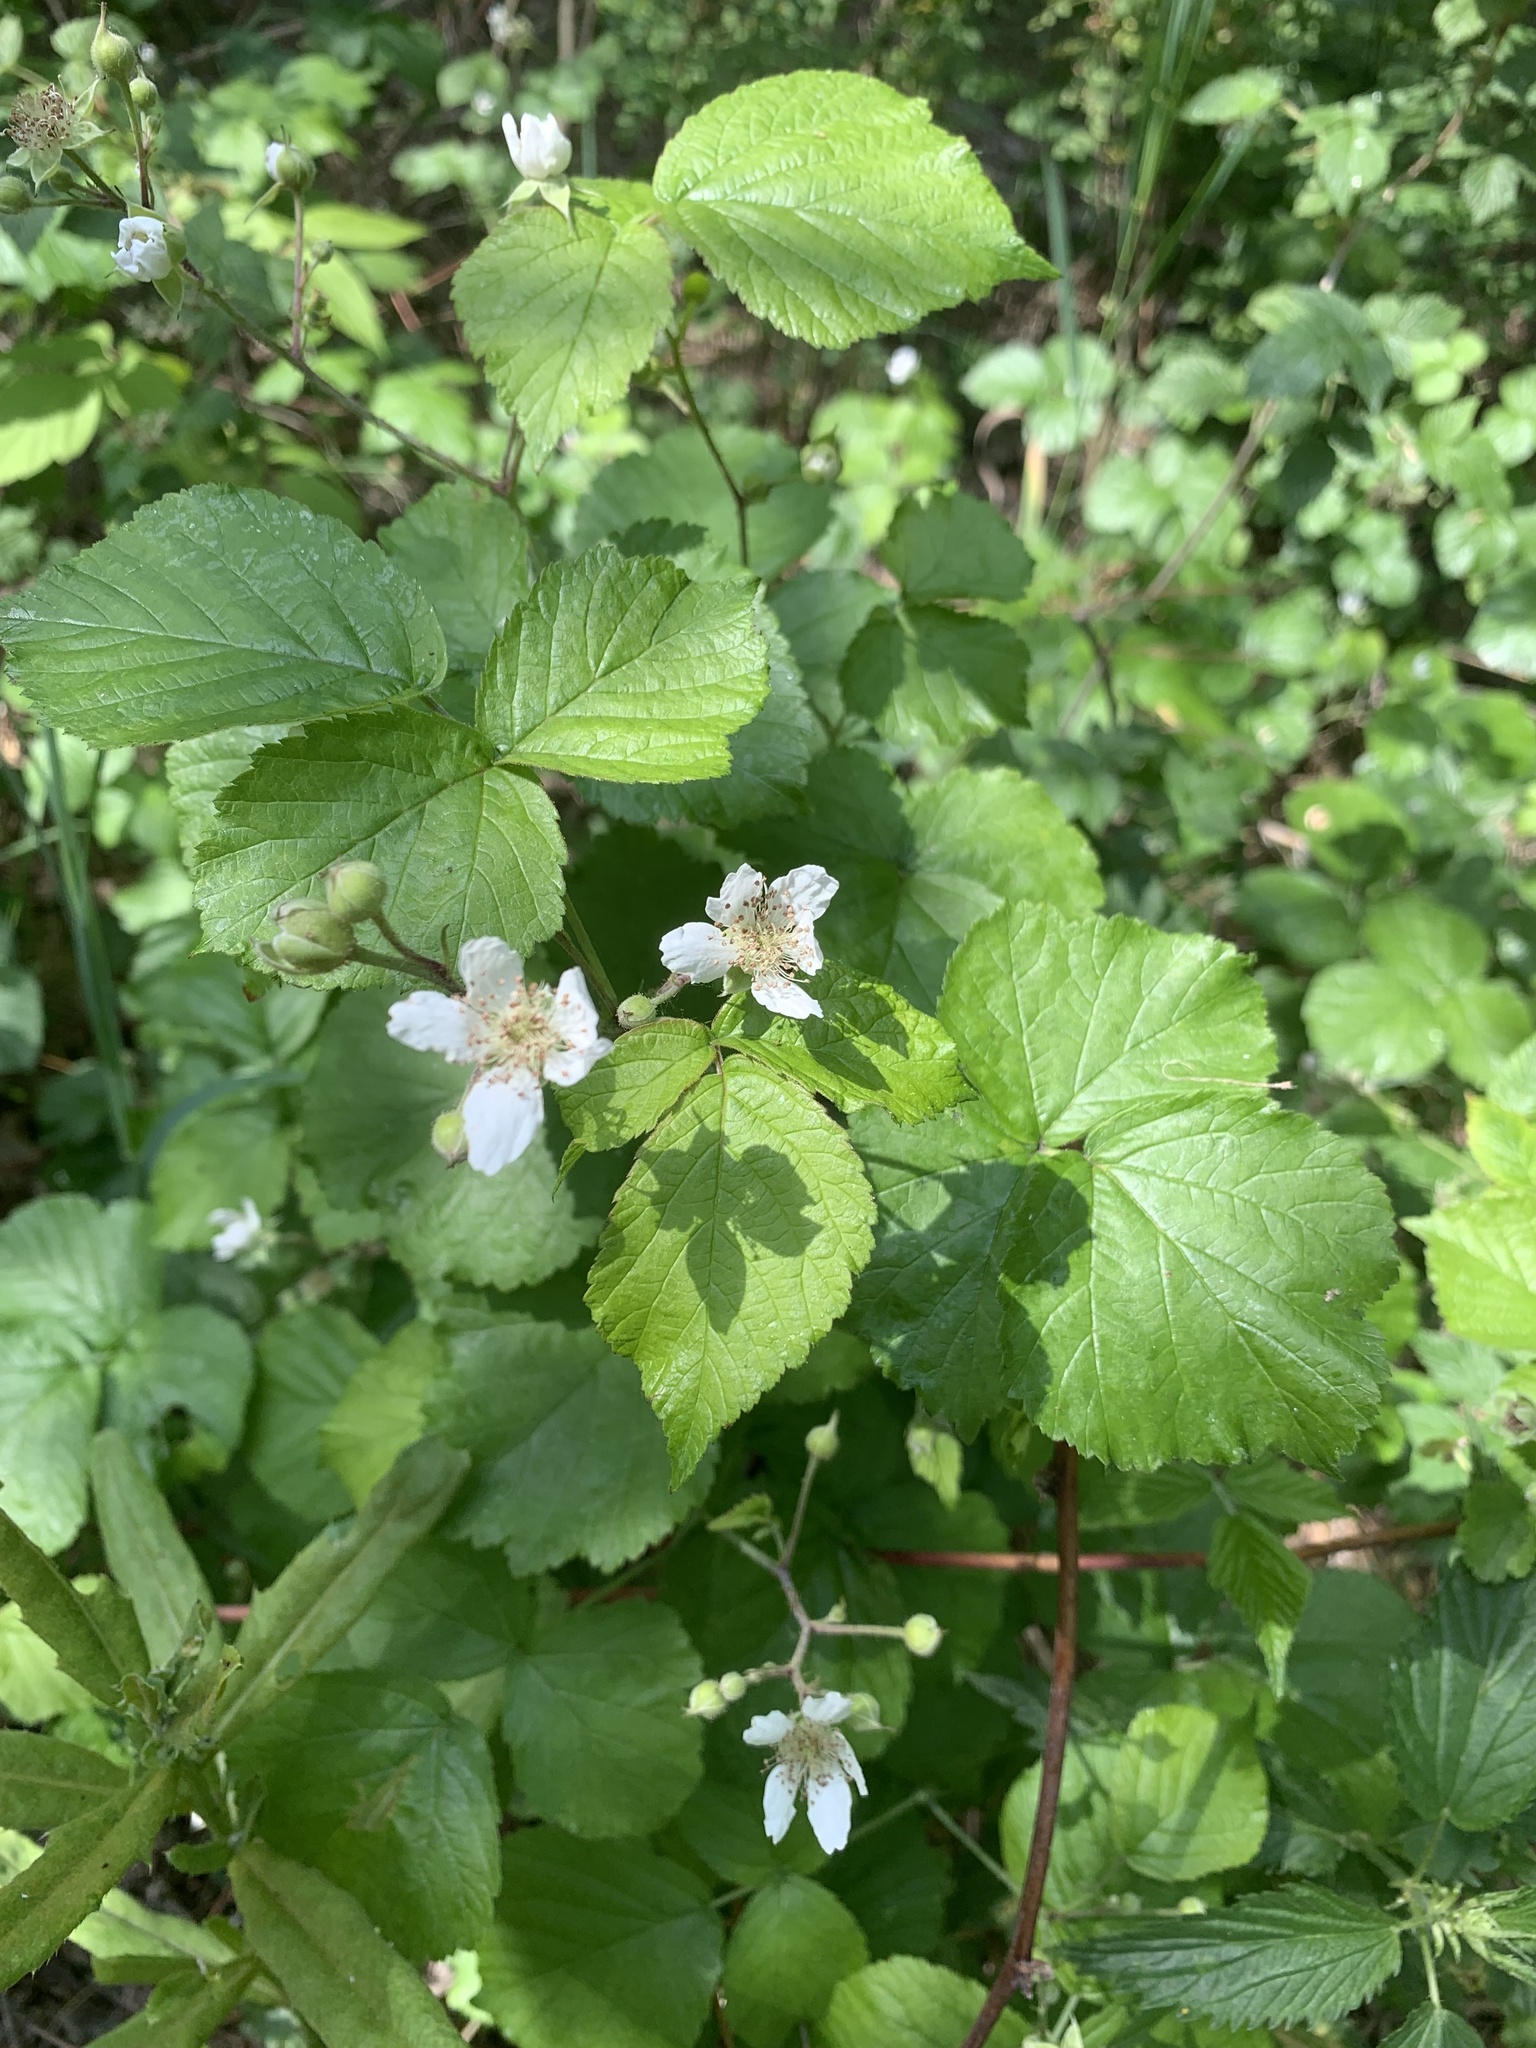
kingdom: Plantae
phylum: Tracheophyta
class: Magnoliopsida
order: Rosales
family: Rosaceae
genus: Rubus
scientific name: Rubus caesius
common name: Dewberry
